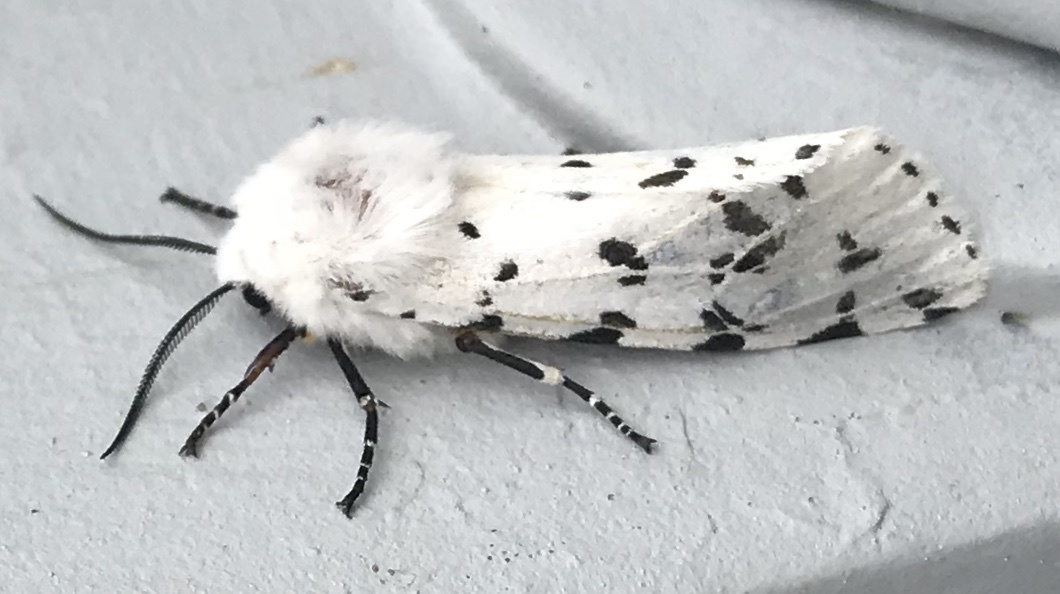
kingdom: Animalia
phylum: Arthropoda
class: Insecta
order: Lepidoptera
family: Erebidae
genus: Estigmene
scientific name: Estigmene
